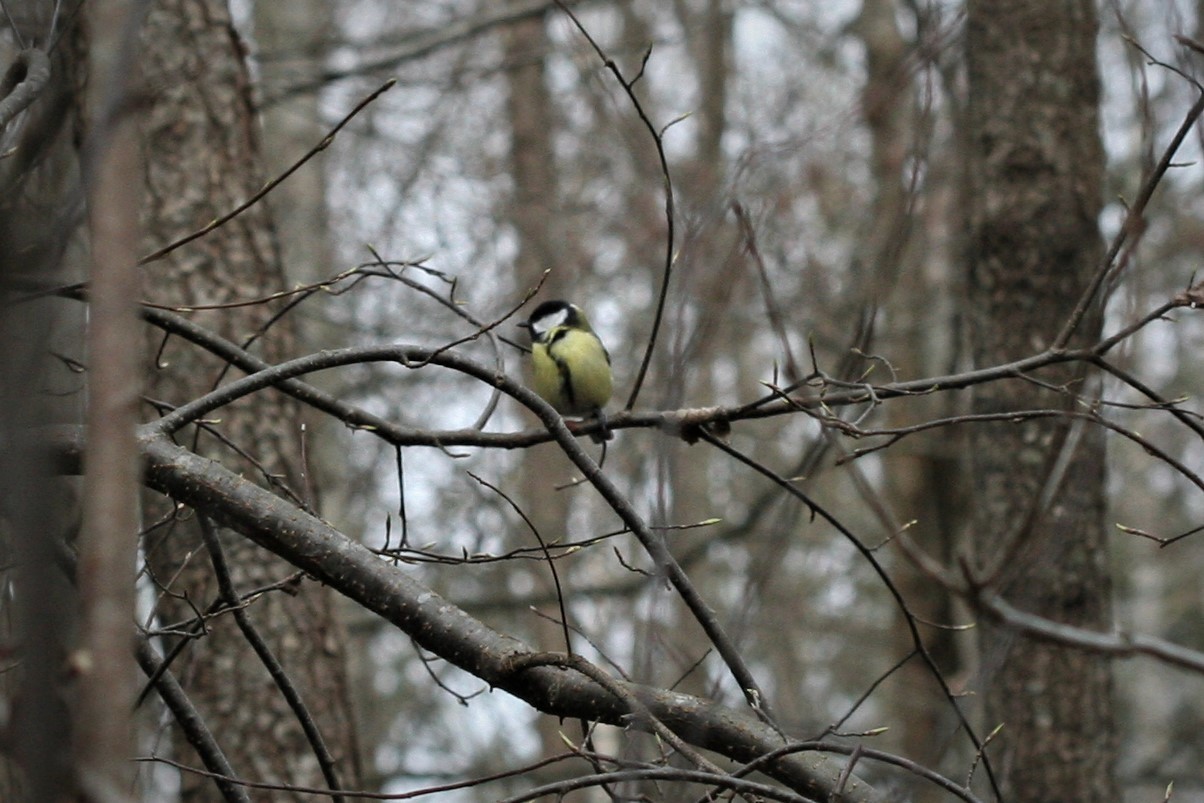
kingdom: Animalia
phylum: Chordata
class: Aves
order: Passeriformes
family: Paridae
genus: Parus
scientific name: Parus major
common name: Great tit
